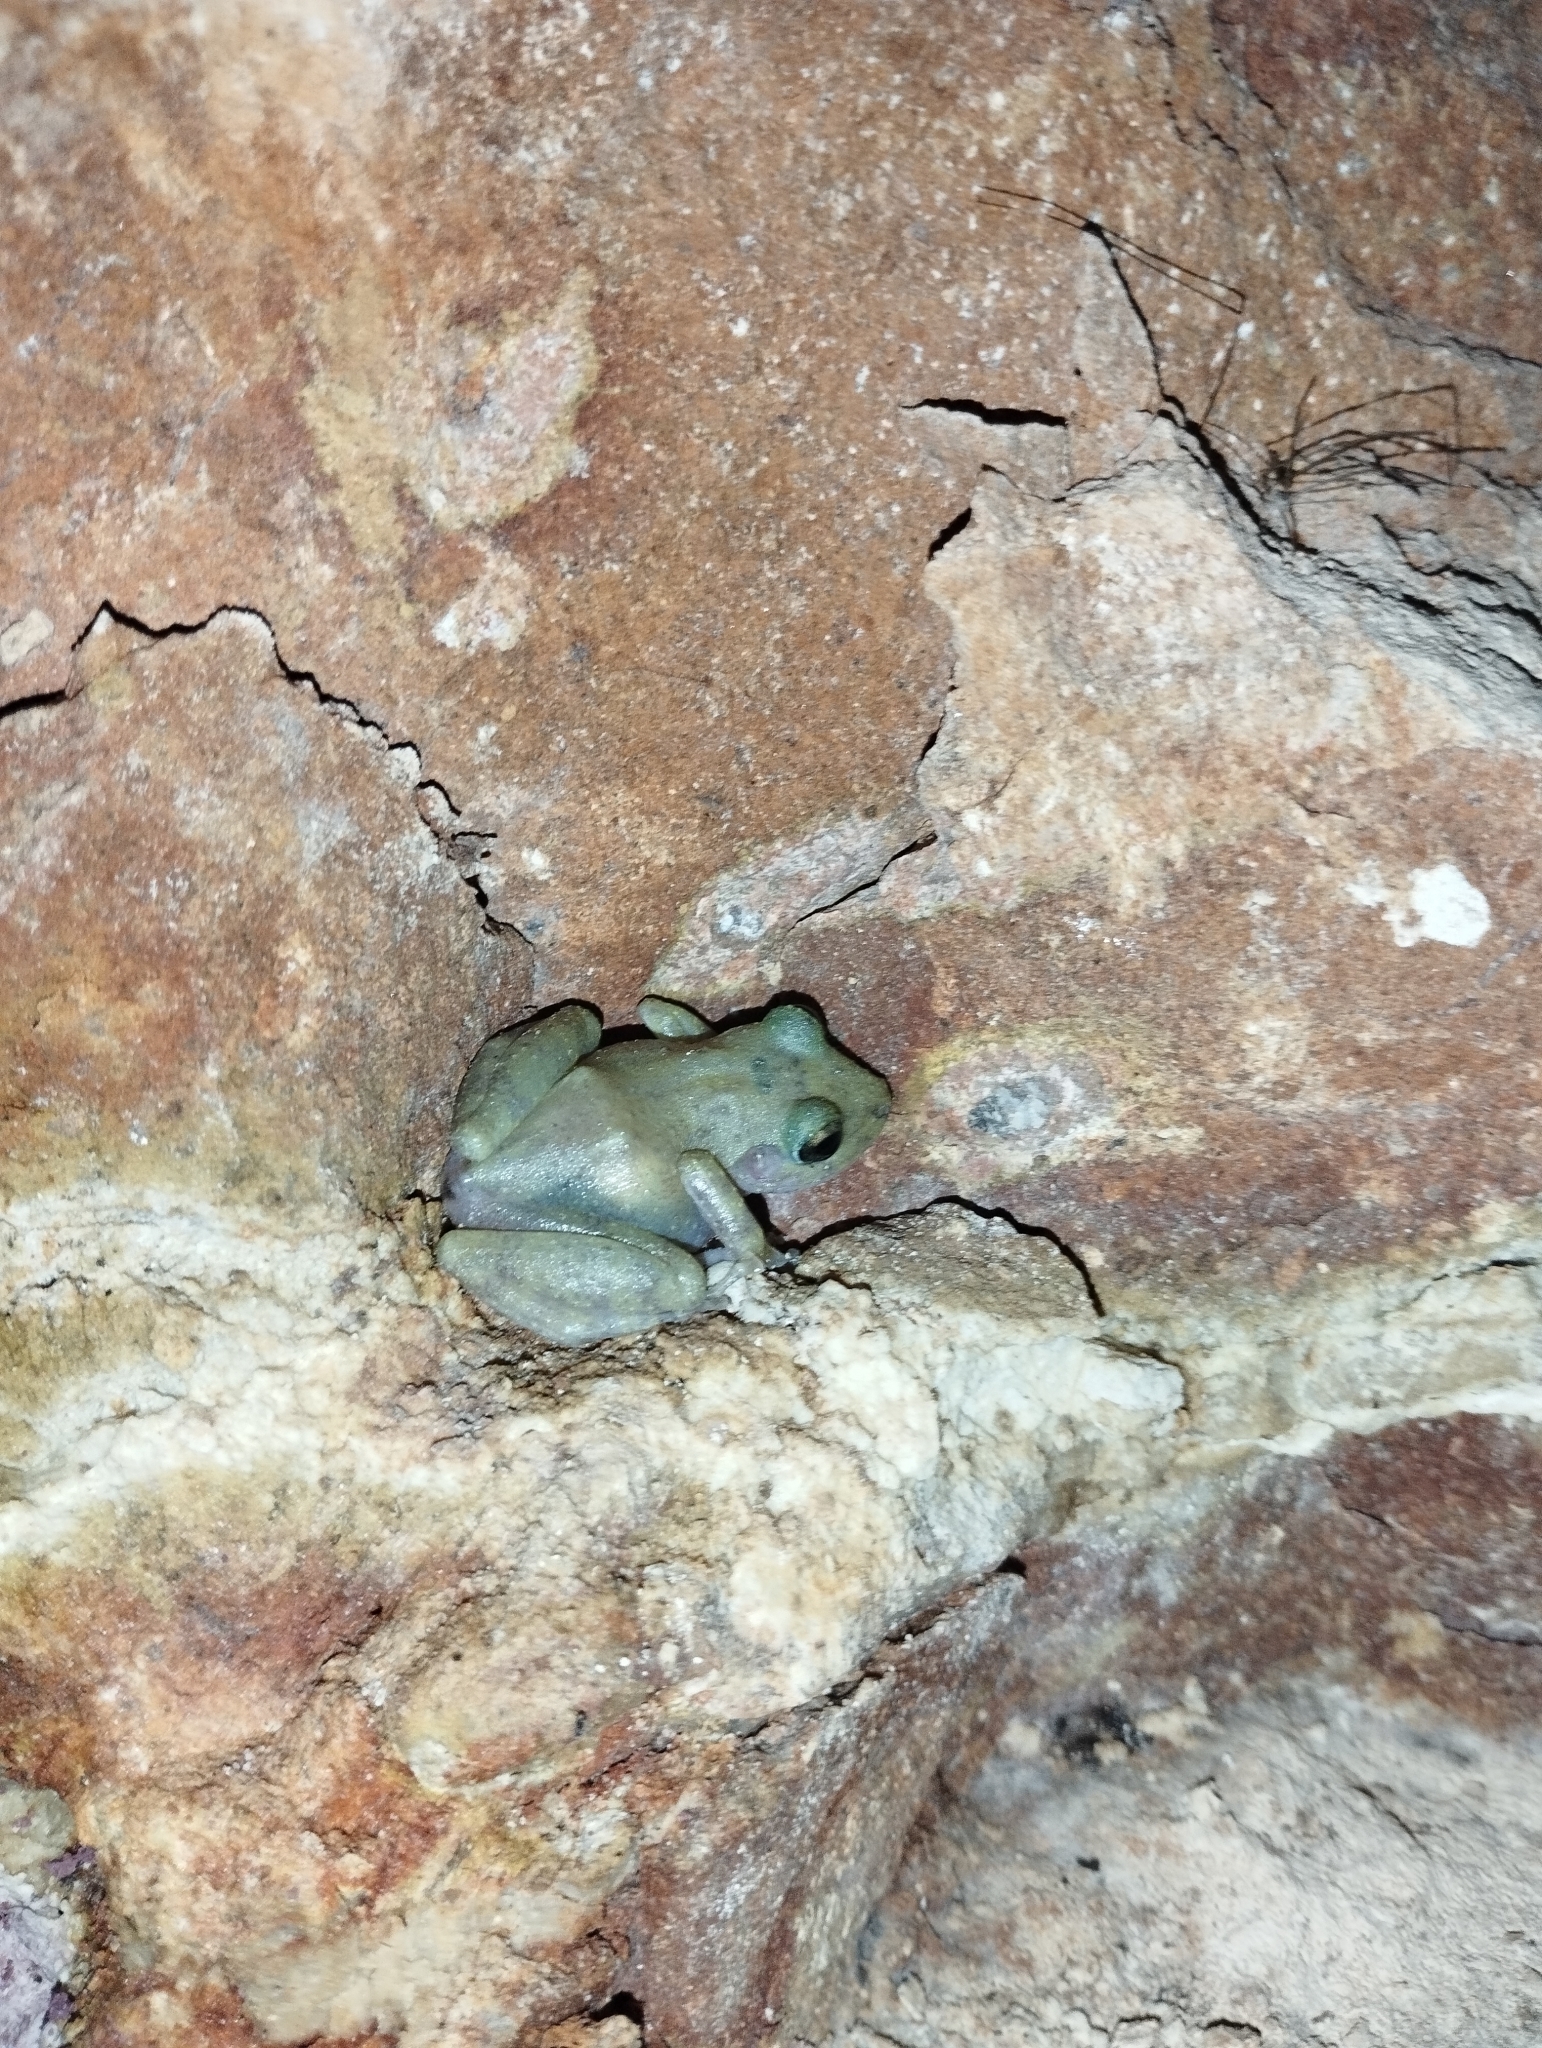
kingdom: Animalia
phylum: Chordata
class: Amphibia
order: Anura
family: Craugastoridae
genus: Craugastor
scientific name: Craugastor yucatanensis
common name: Yucatan rainfrog
